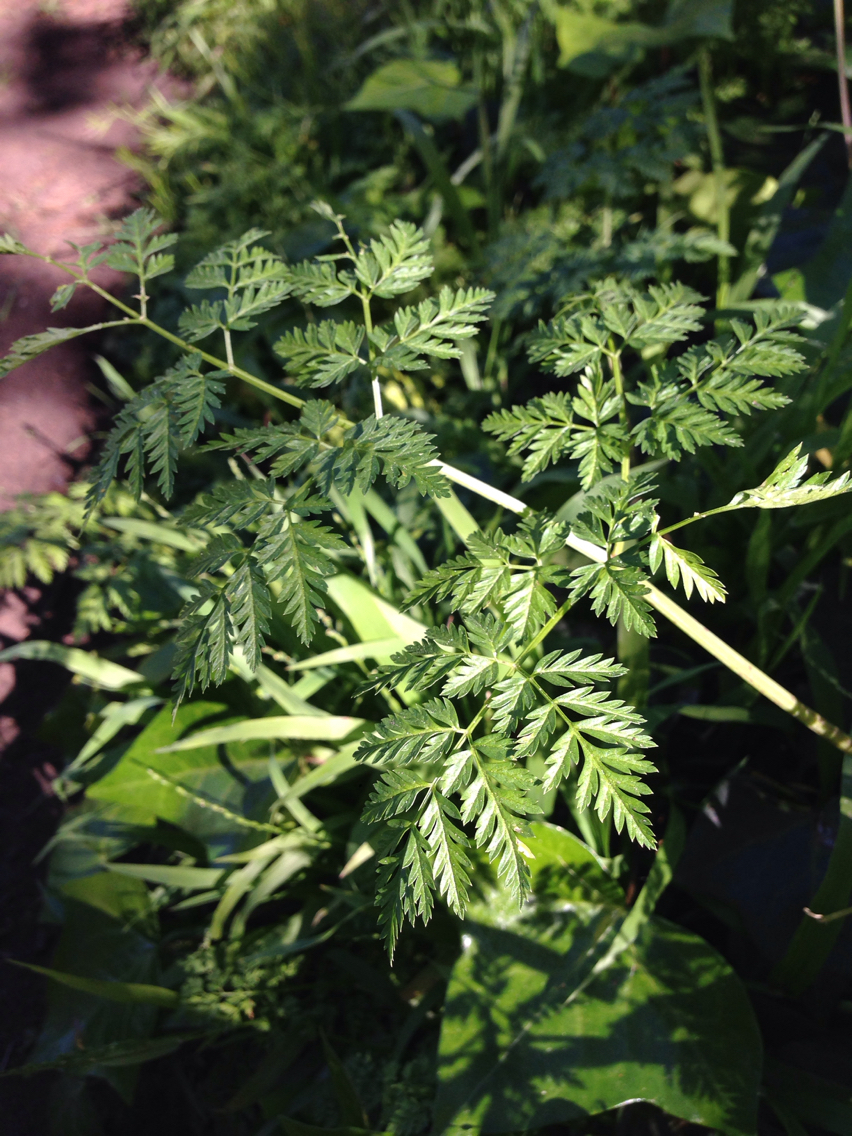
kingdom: Plantae
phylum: Tracheophyta
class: Magnoliopsida
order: Apiales
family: Apiaceae
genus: Conium
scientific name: Conium maculatum
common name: Hemlock
